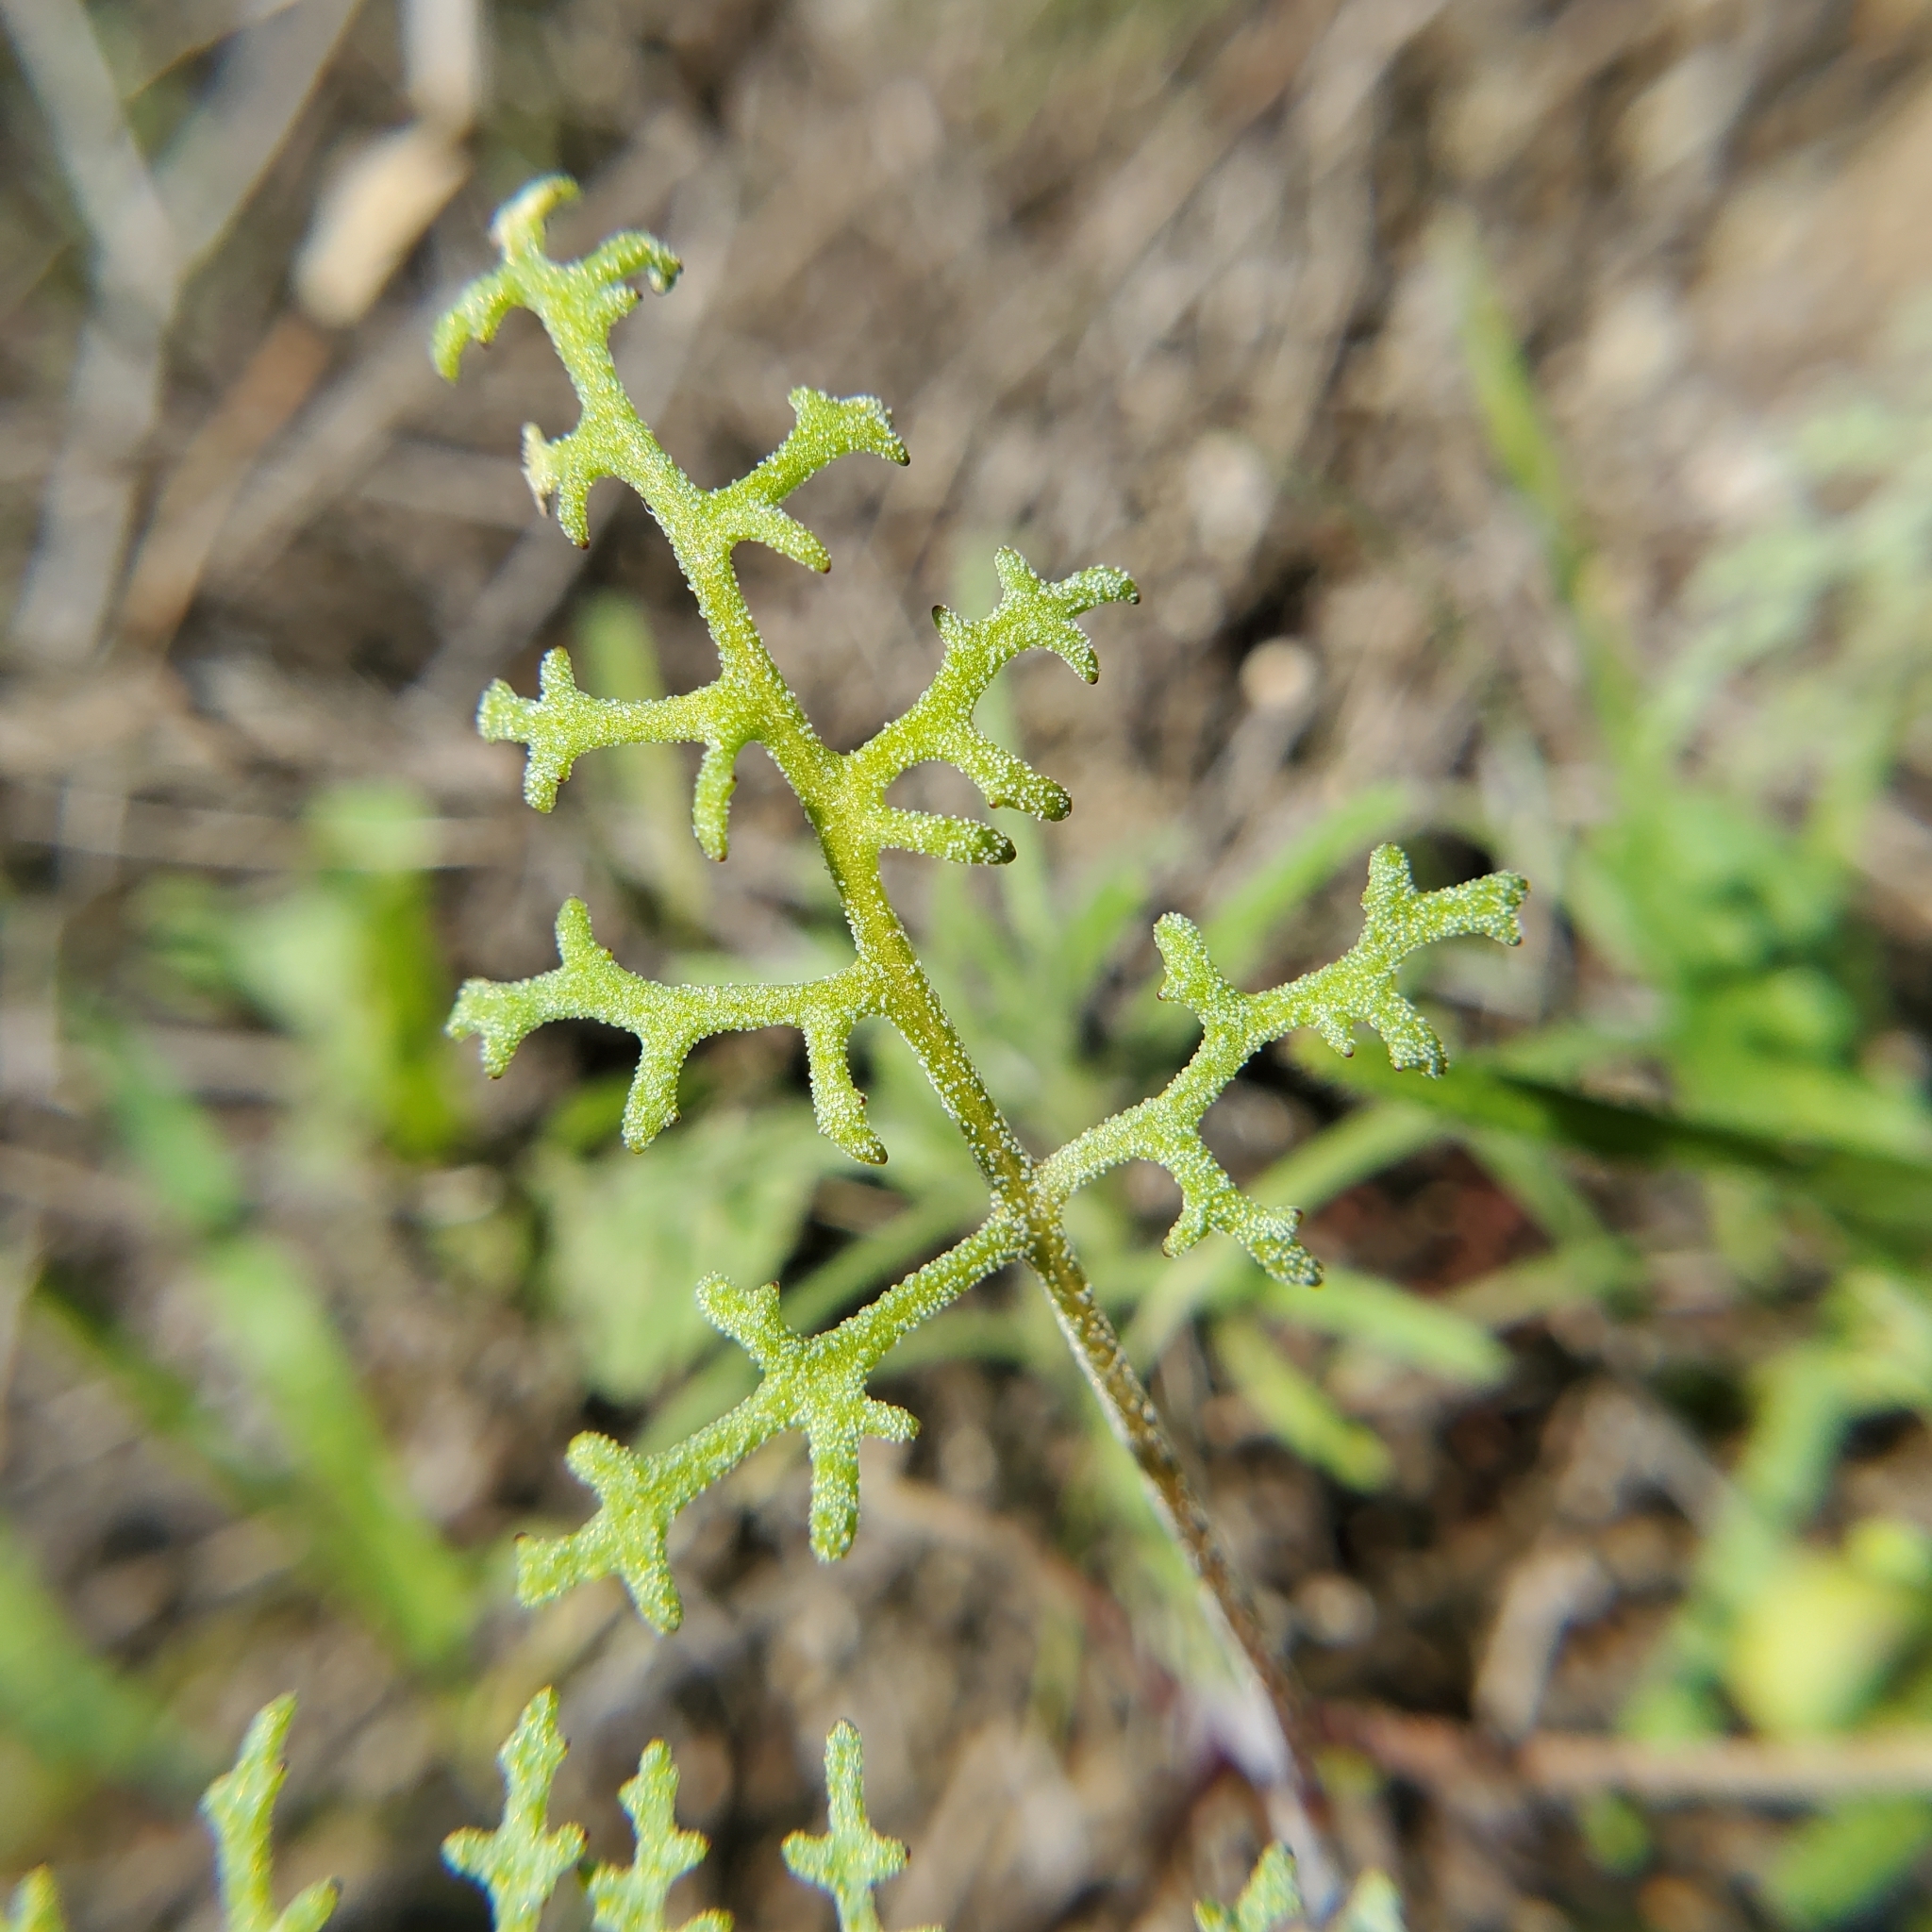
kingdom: Plantae
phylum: Tracheophyta
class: Magnoliopsida
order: Asterales
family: Asteraceae
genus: Chaenactis
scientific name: Chaenactis artemisiifolia
